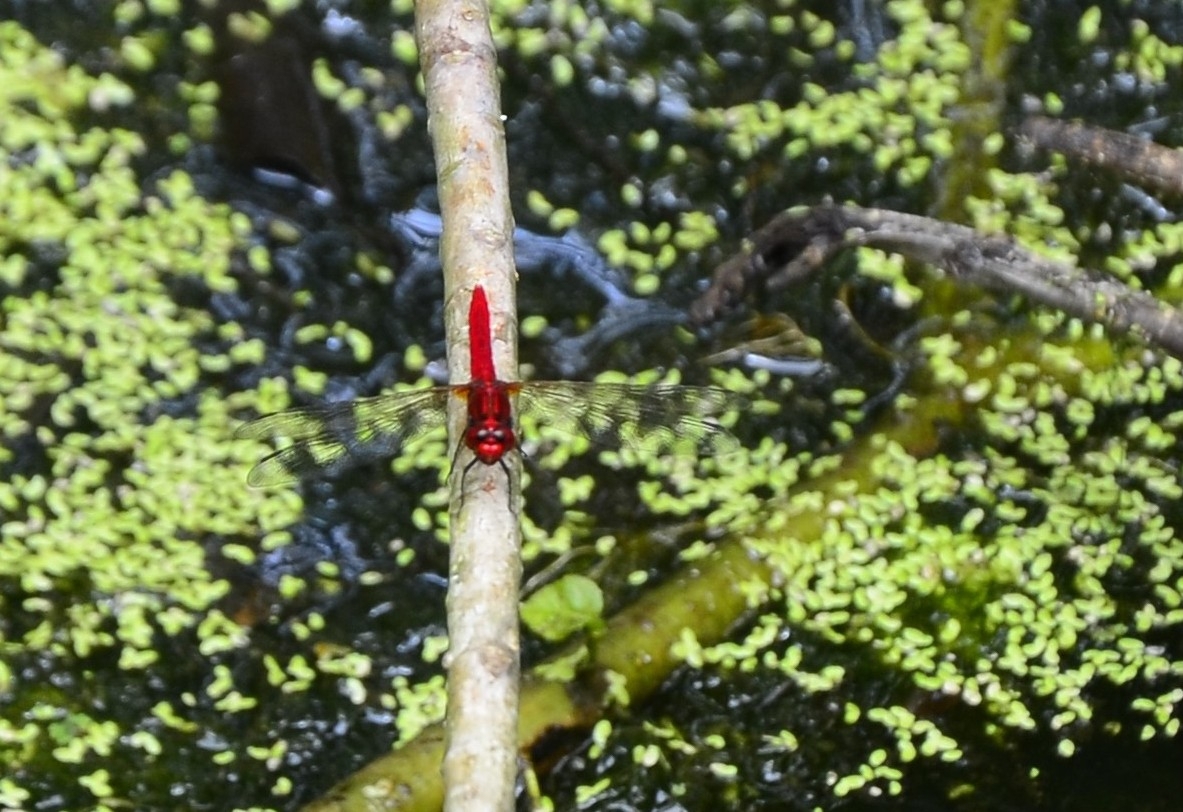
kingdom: Animalia
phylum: Arthropoda
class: Insecta
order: Odonata
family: Libellulidae
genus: Rhodothemis
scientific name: Rhodothemis rufa
